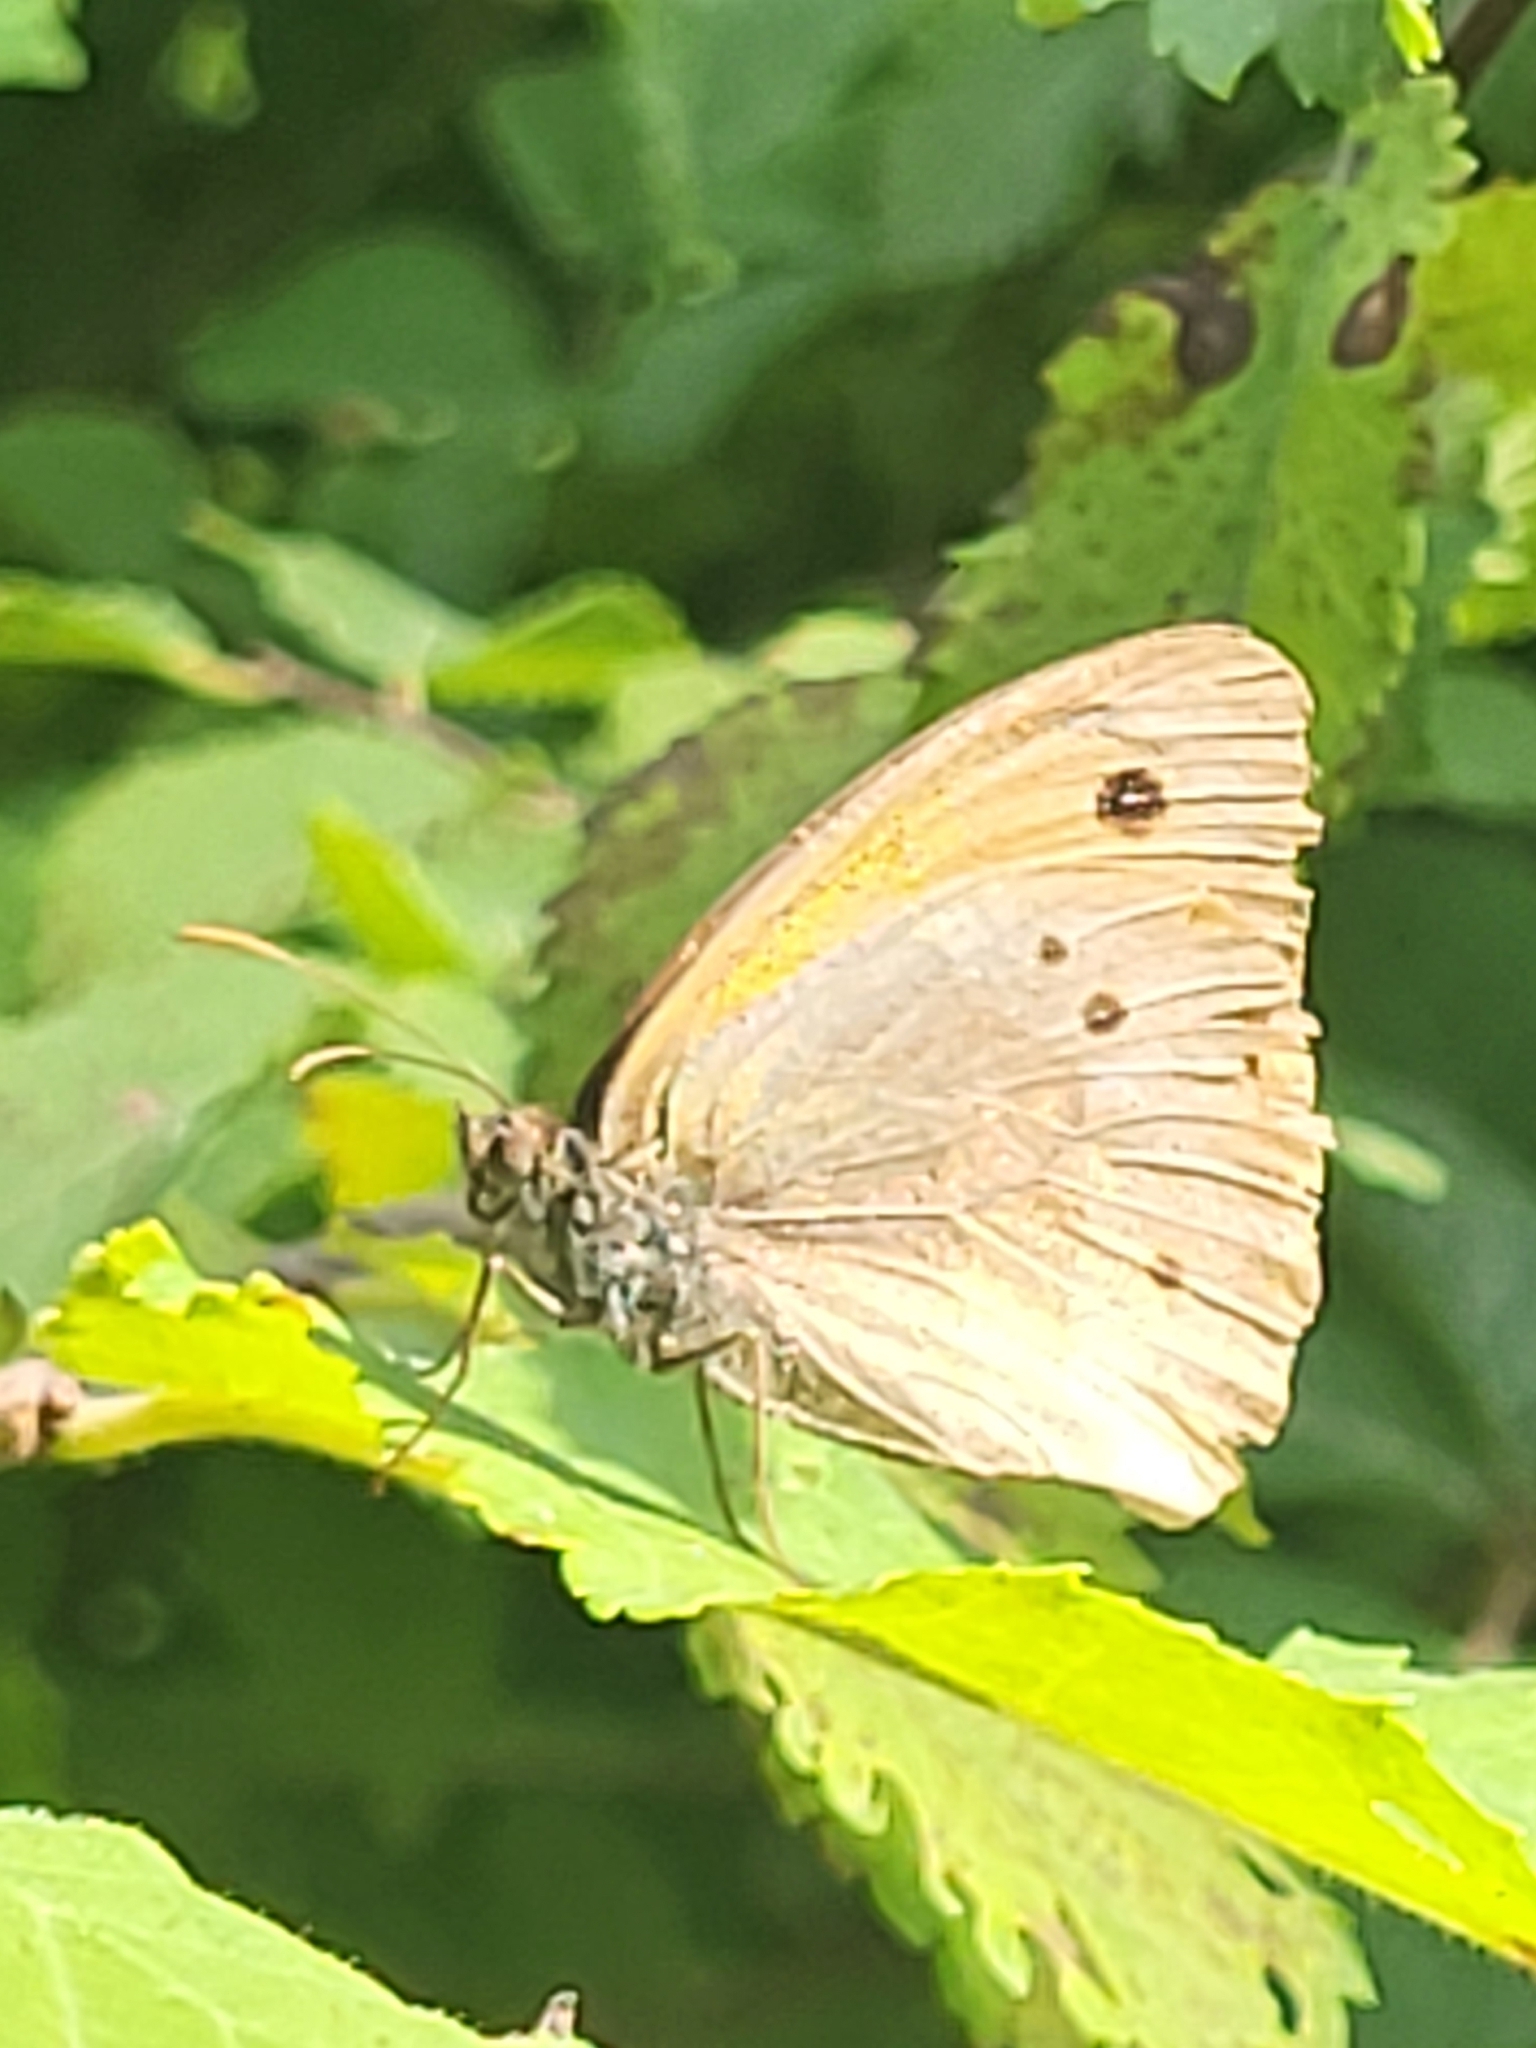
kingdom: Animalia
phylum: Arthropoda
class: Insecta
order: Lepidoptera
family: Nymphalidae
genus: Maniola
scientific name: Maniola jurtina
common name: Meadow brown
